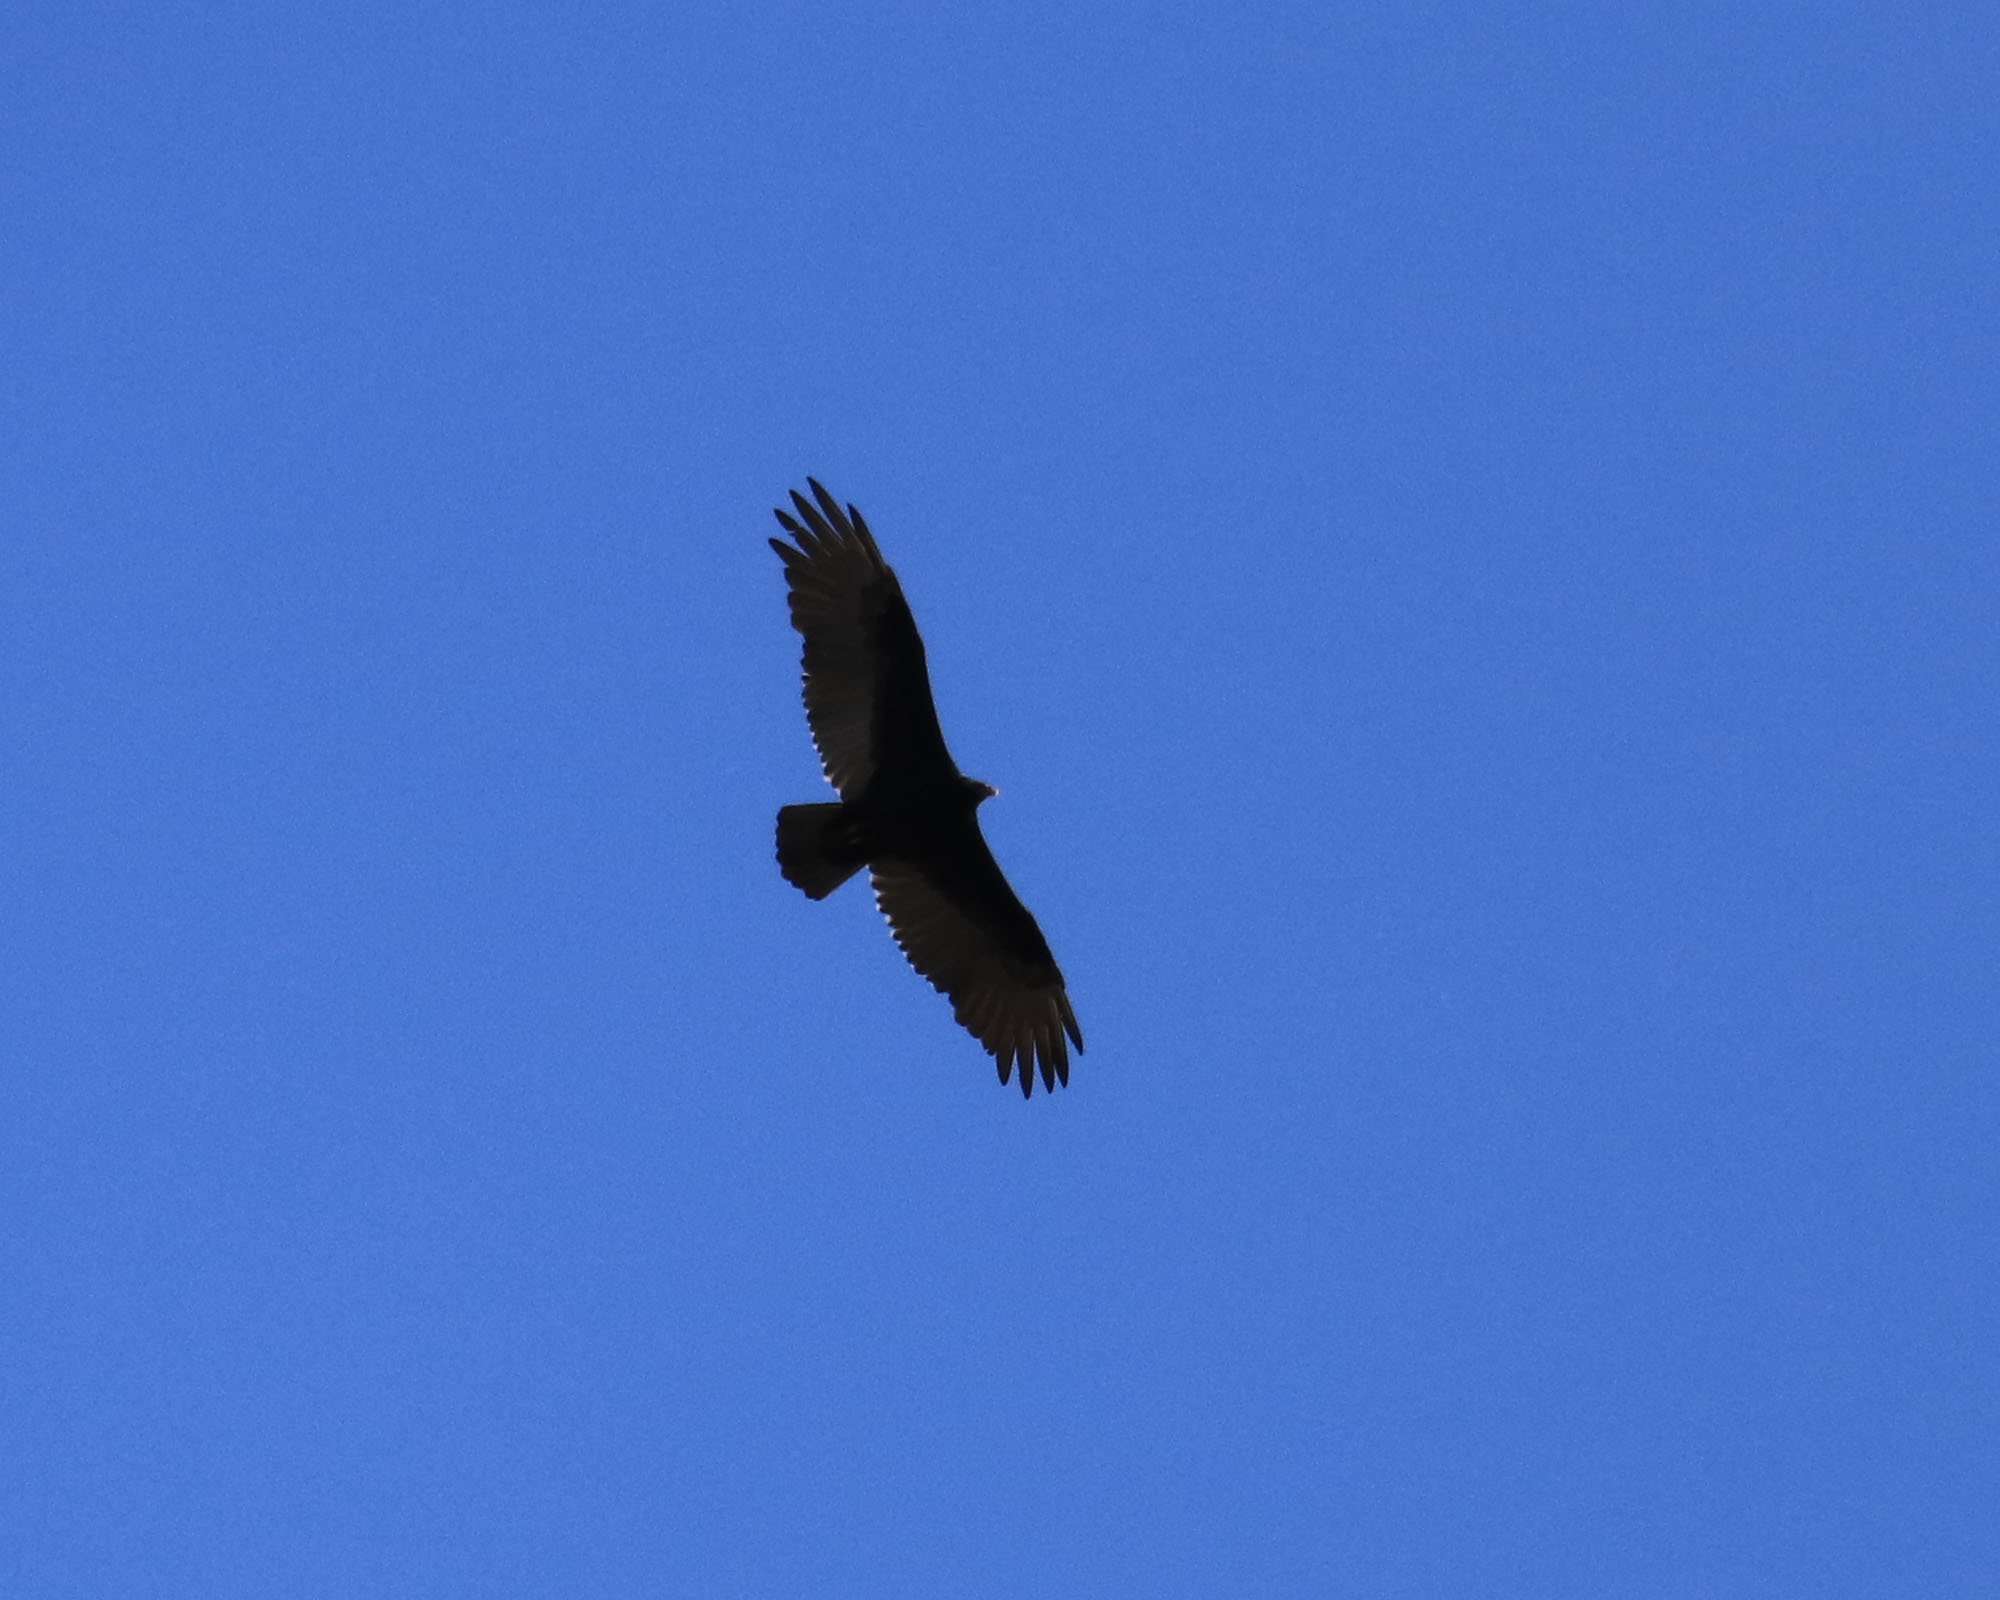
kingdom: Animalia
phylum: Chordata
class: Aves
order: Accipitriformes
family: Cathartidae
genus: Cathartes
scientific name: Cathartes aura
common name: Turkey vulture
